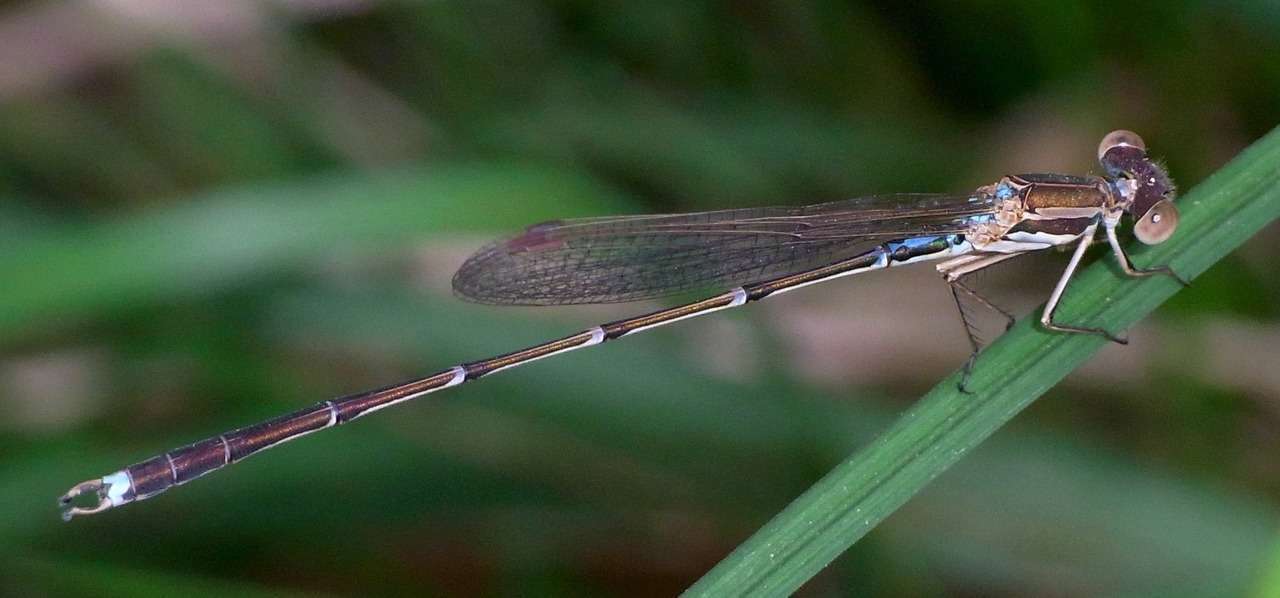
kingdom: Animalia
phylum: Arthropoda
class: Insecta
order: Odonata
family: Lestidae
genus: Austrolestes
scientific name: Austrolestes analis
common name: Slender ringtail
